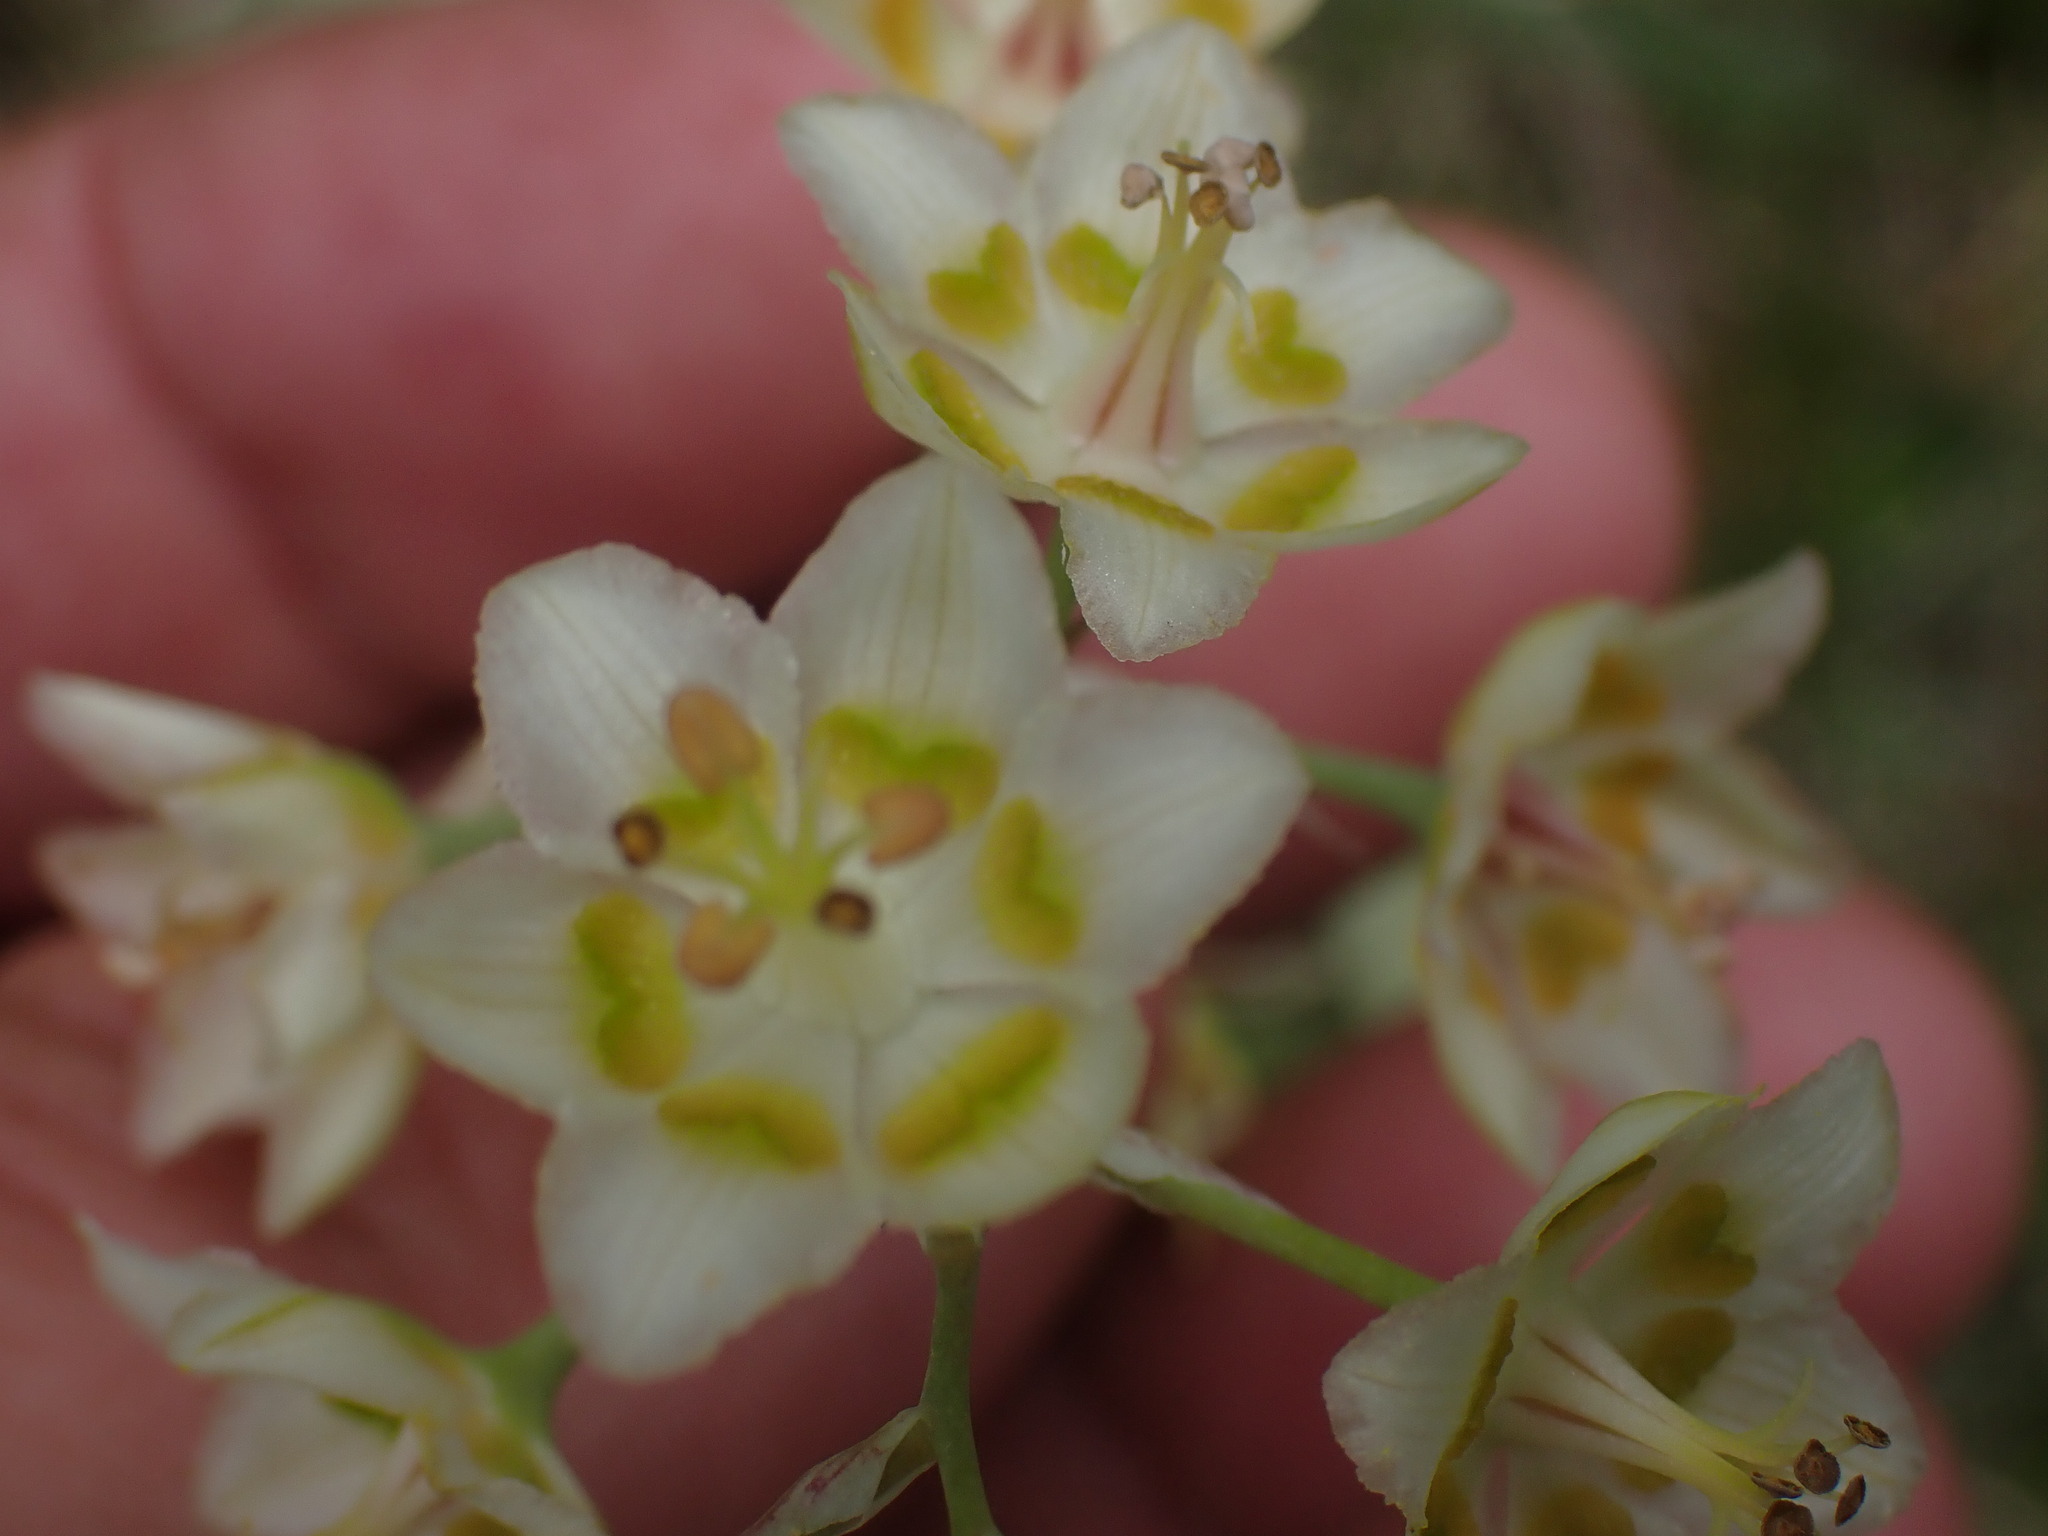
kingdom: Plantae
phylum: Tracheophyta
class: Liliopsida
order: Liliales
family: Melanthiaceae
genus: Anticlea
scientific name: Anticlea elegans
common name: Mountain death camas
